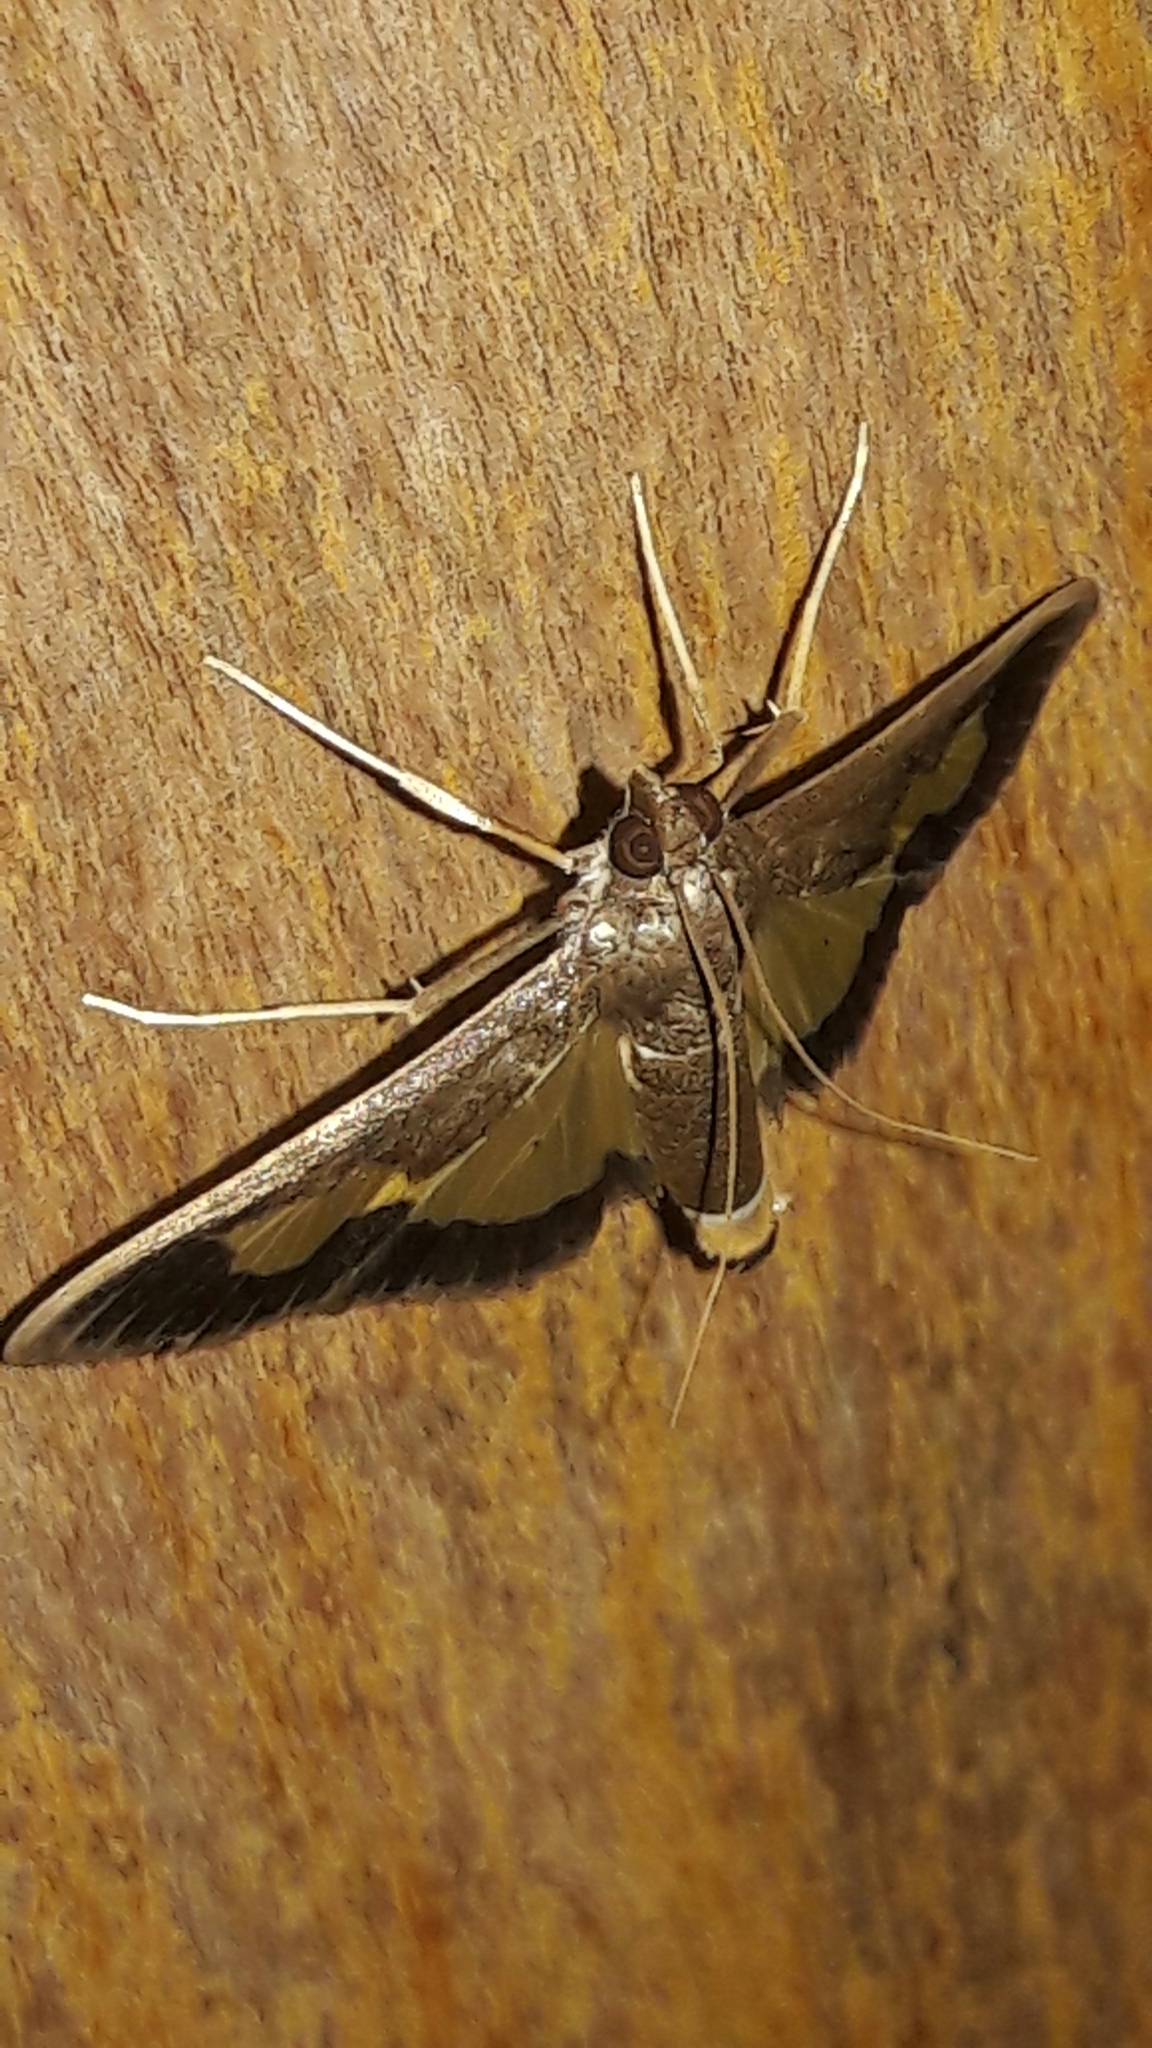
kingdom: Animalia
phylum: Arthropoda
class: Insecta
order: Lepidoptera
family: Crambidae
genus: Cryptographis
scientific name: Cryptographis nitidalis
